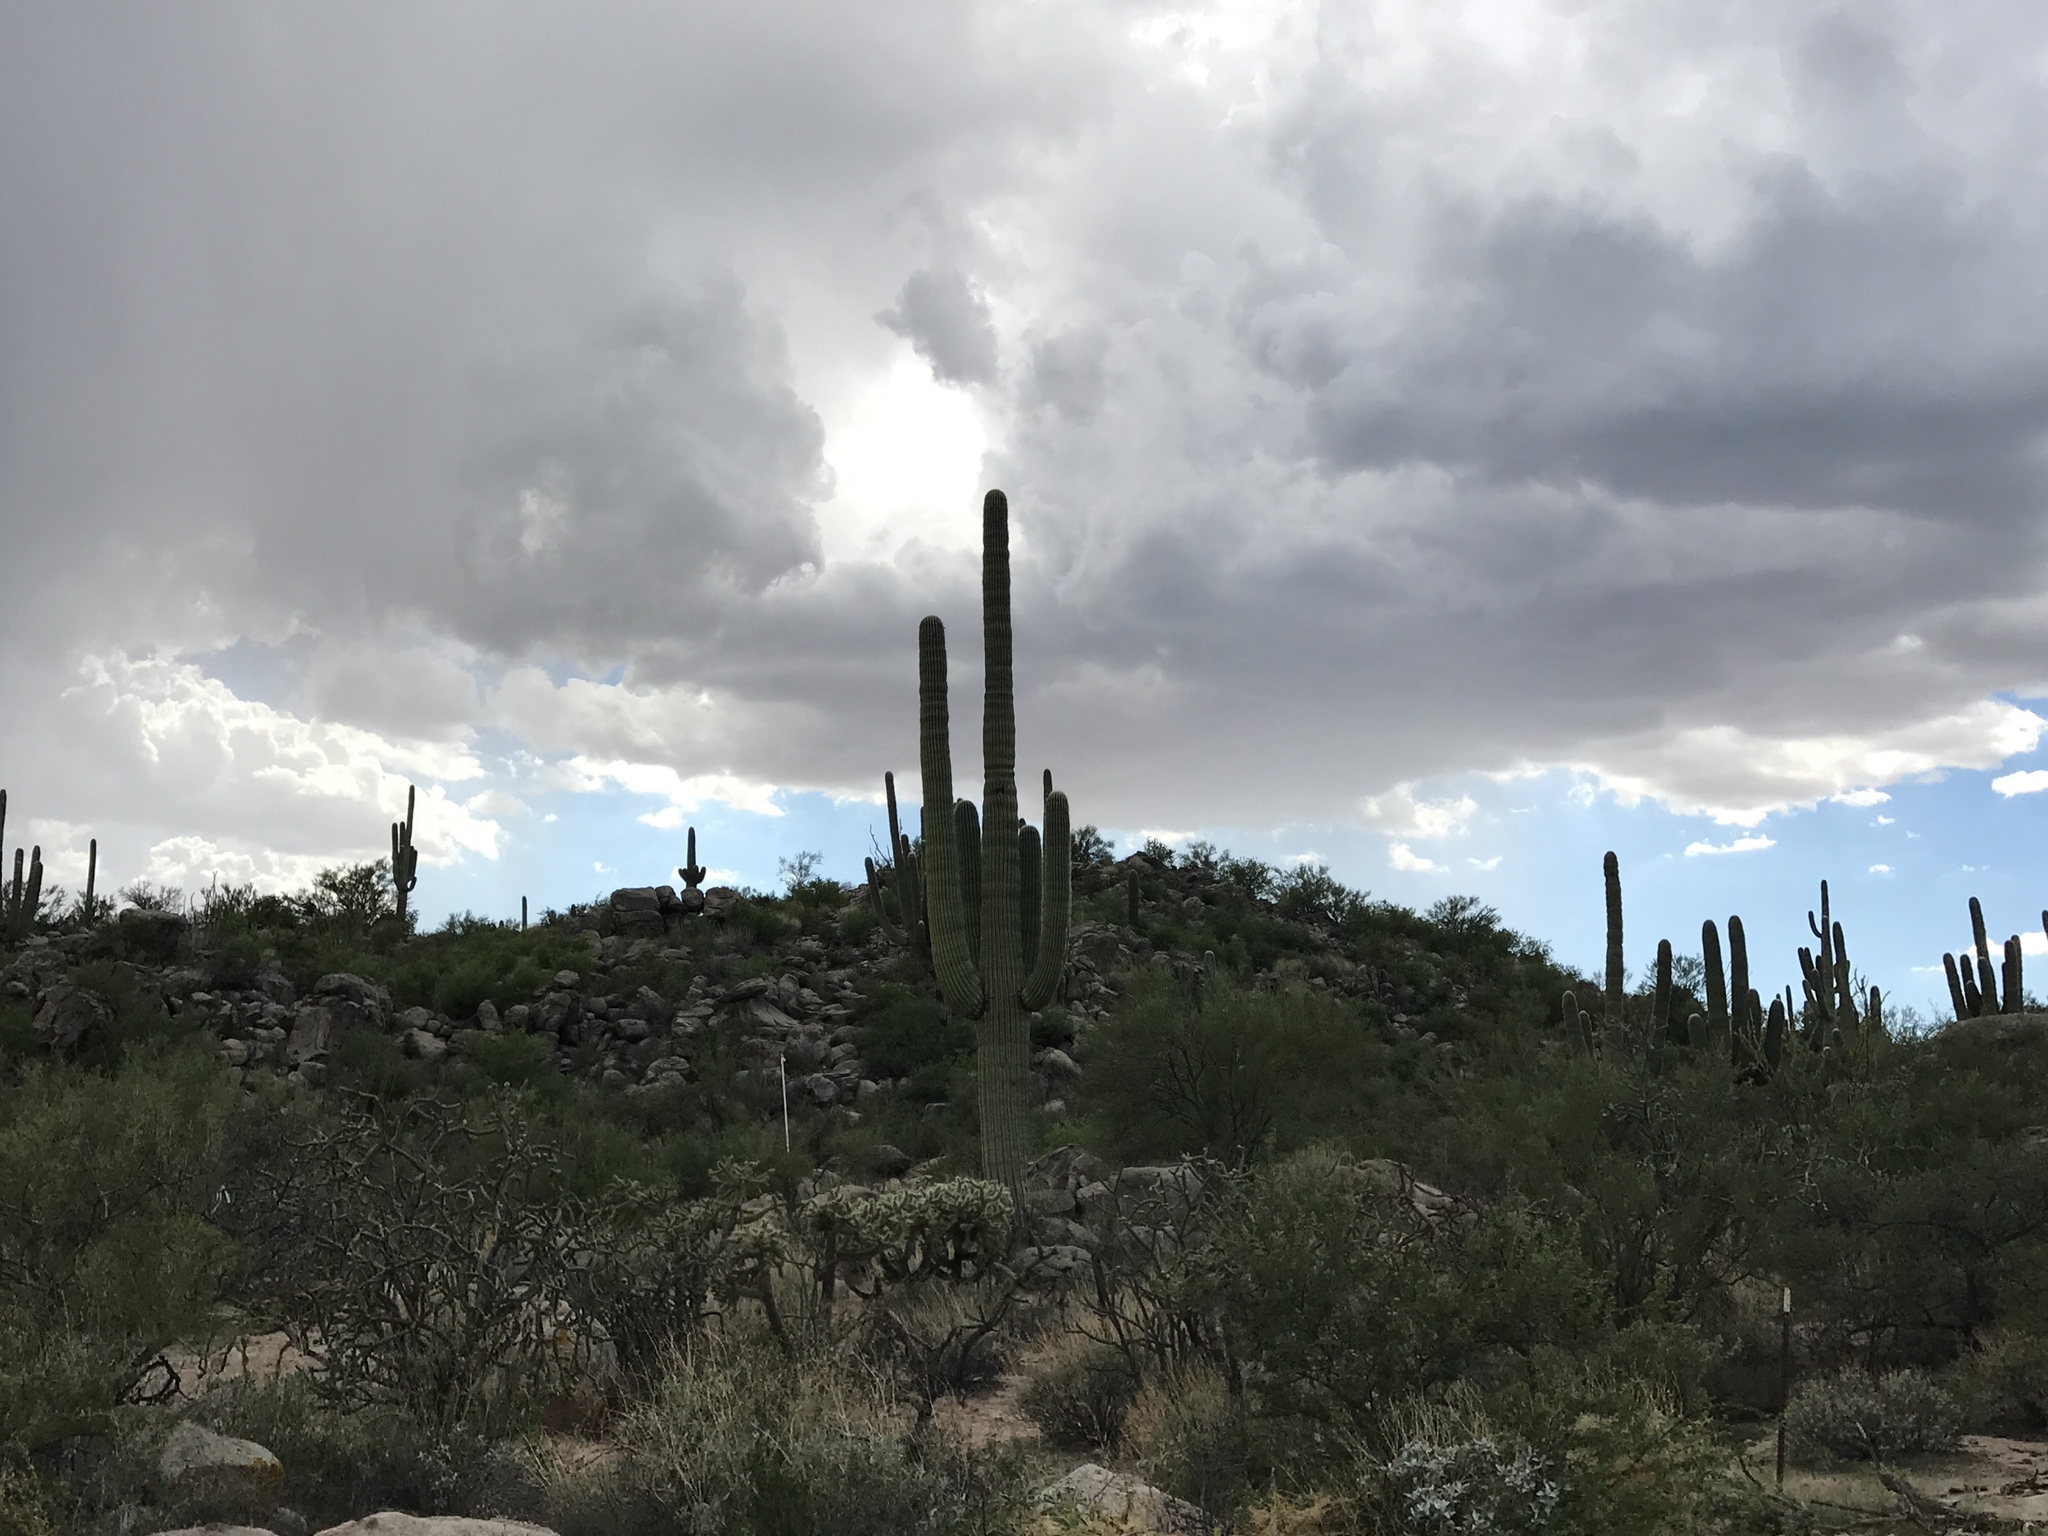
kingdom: Plantae
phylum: Tracheophyta
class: Magnoliopsida
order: Caryophyllales
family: Cactaceae
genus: Carnegiea
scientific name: Carnegiea gigantea
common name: Saguaro
